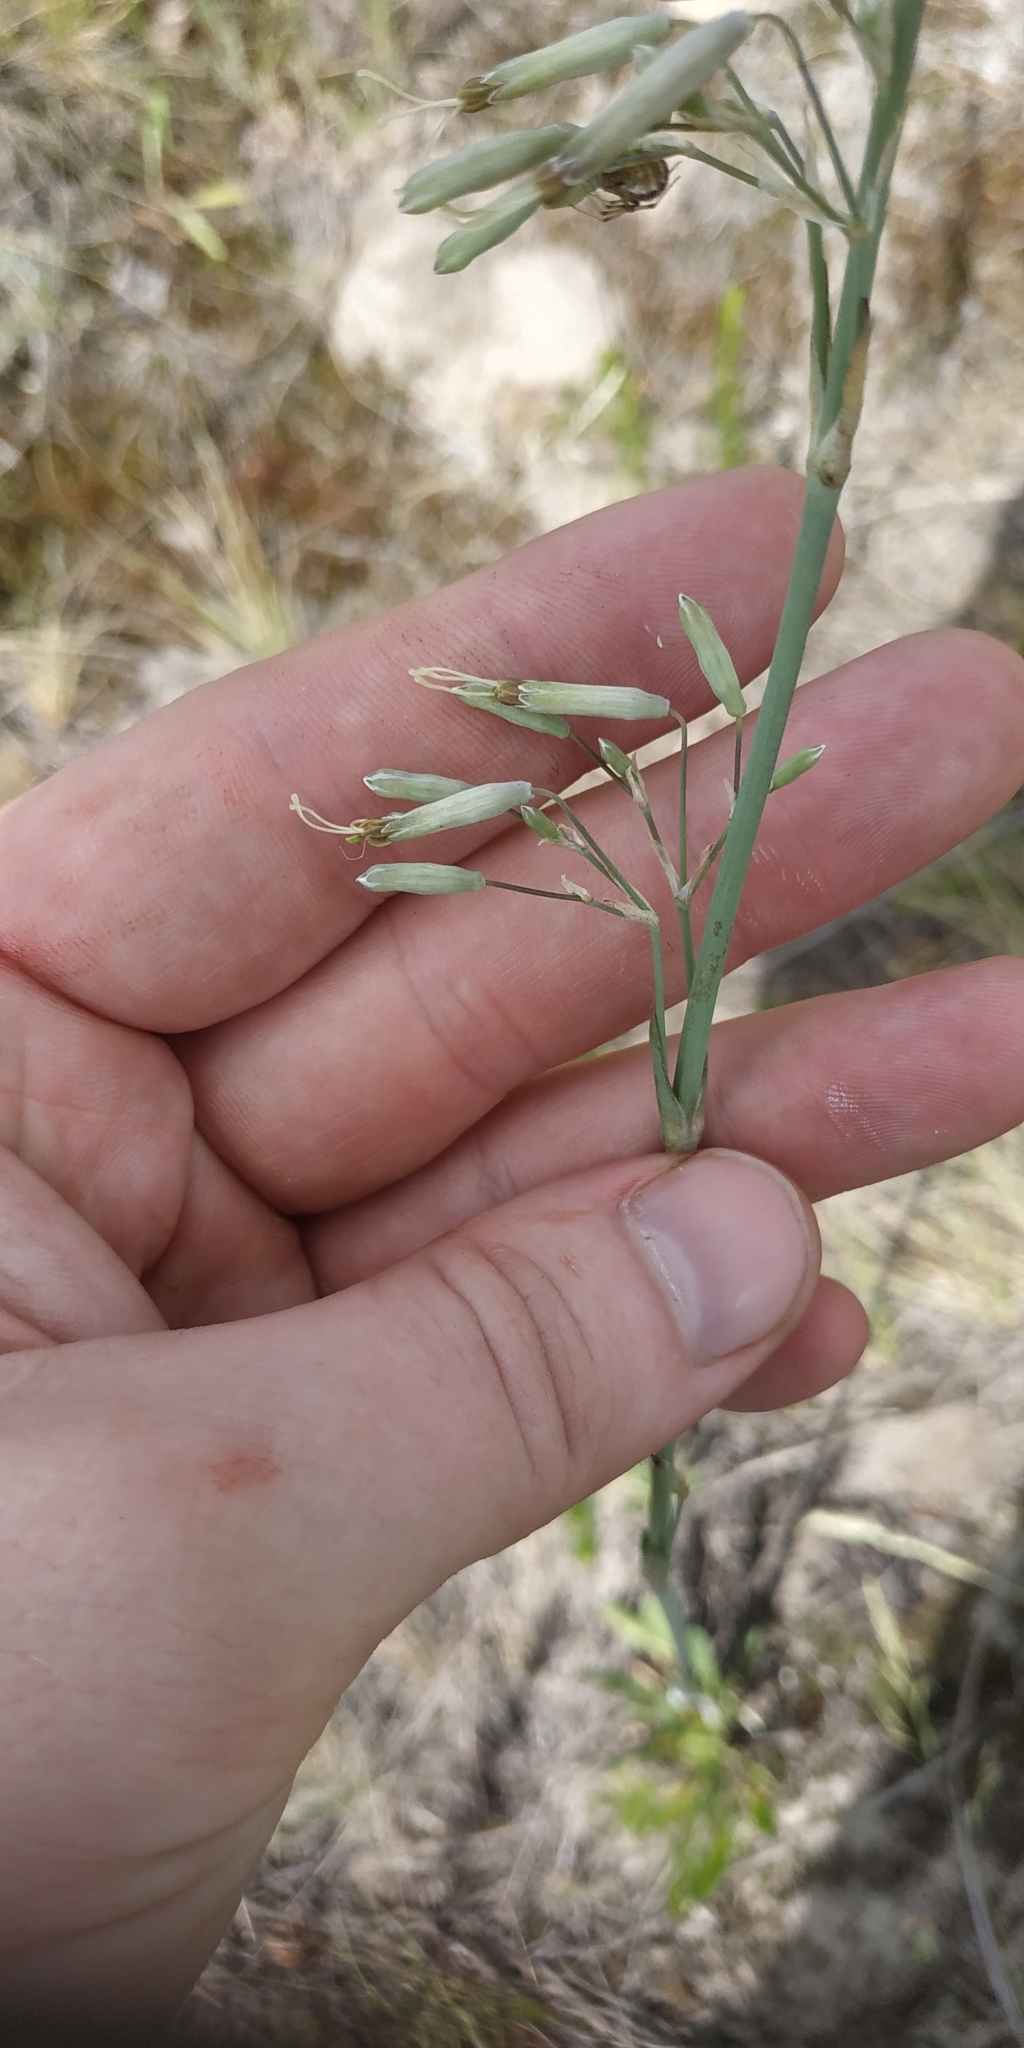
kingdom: Plantae
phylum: Tracheophyta
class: Magnoliopsida
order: Caryophyllales
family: Caryophyllaceae
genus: Silene
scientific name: Silene chlorantha
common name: Yellowgreen catchfly
